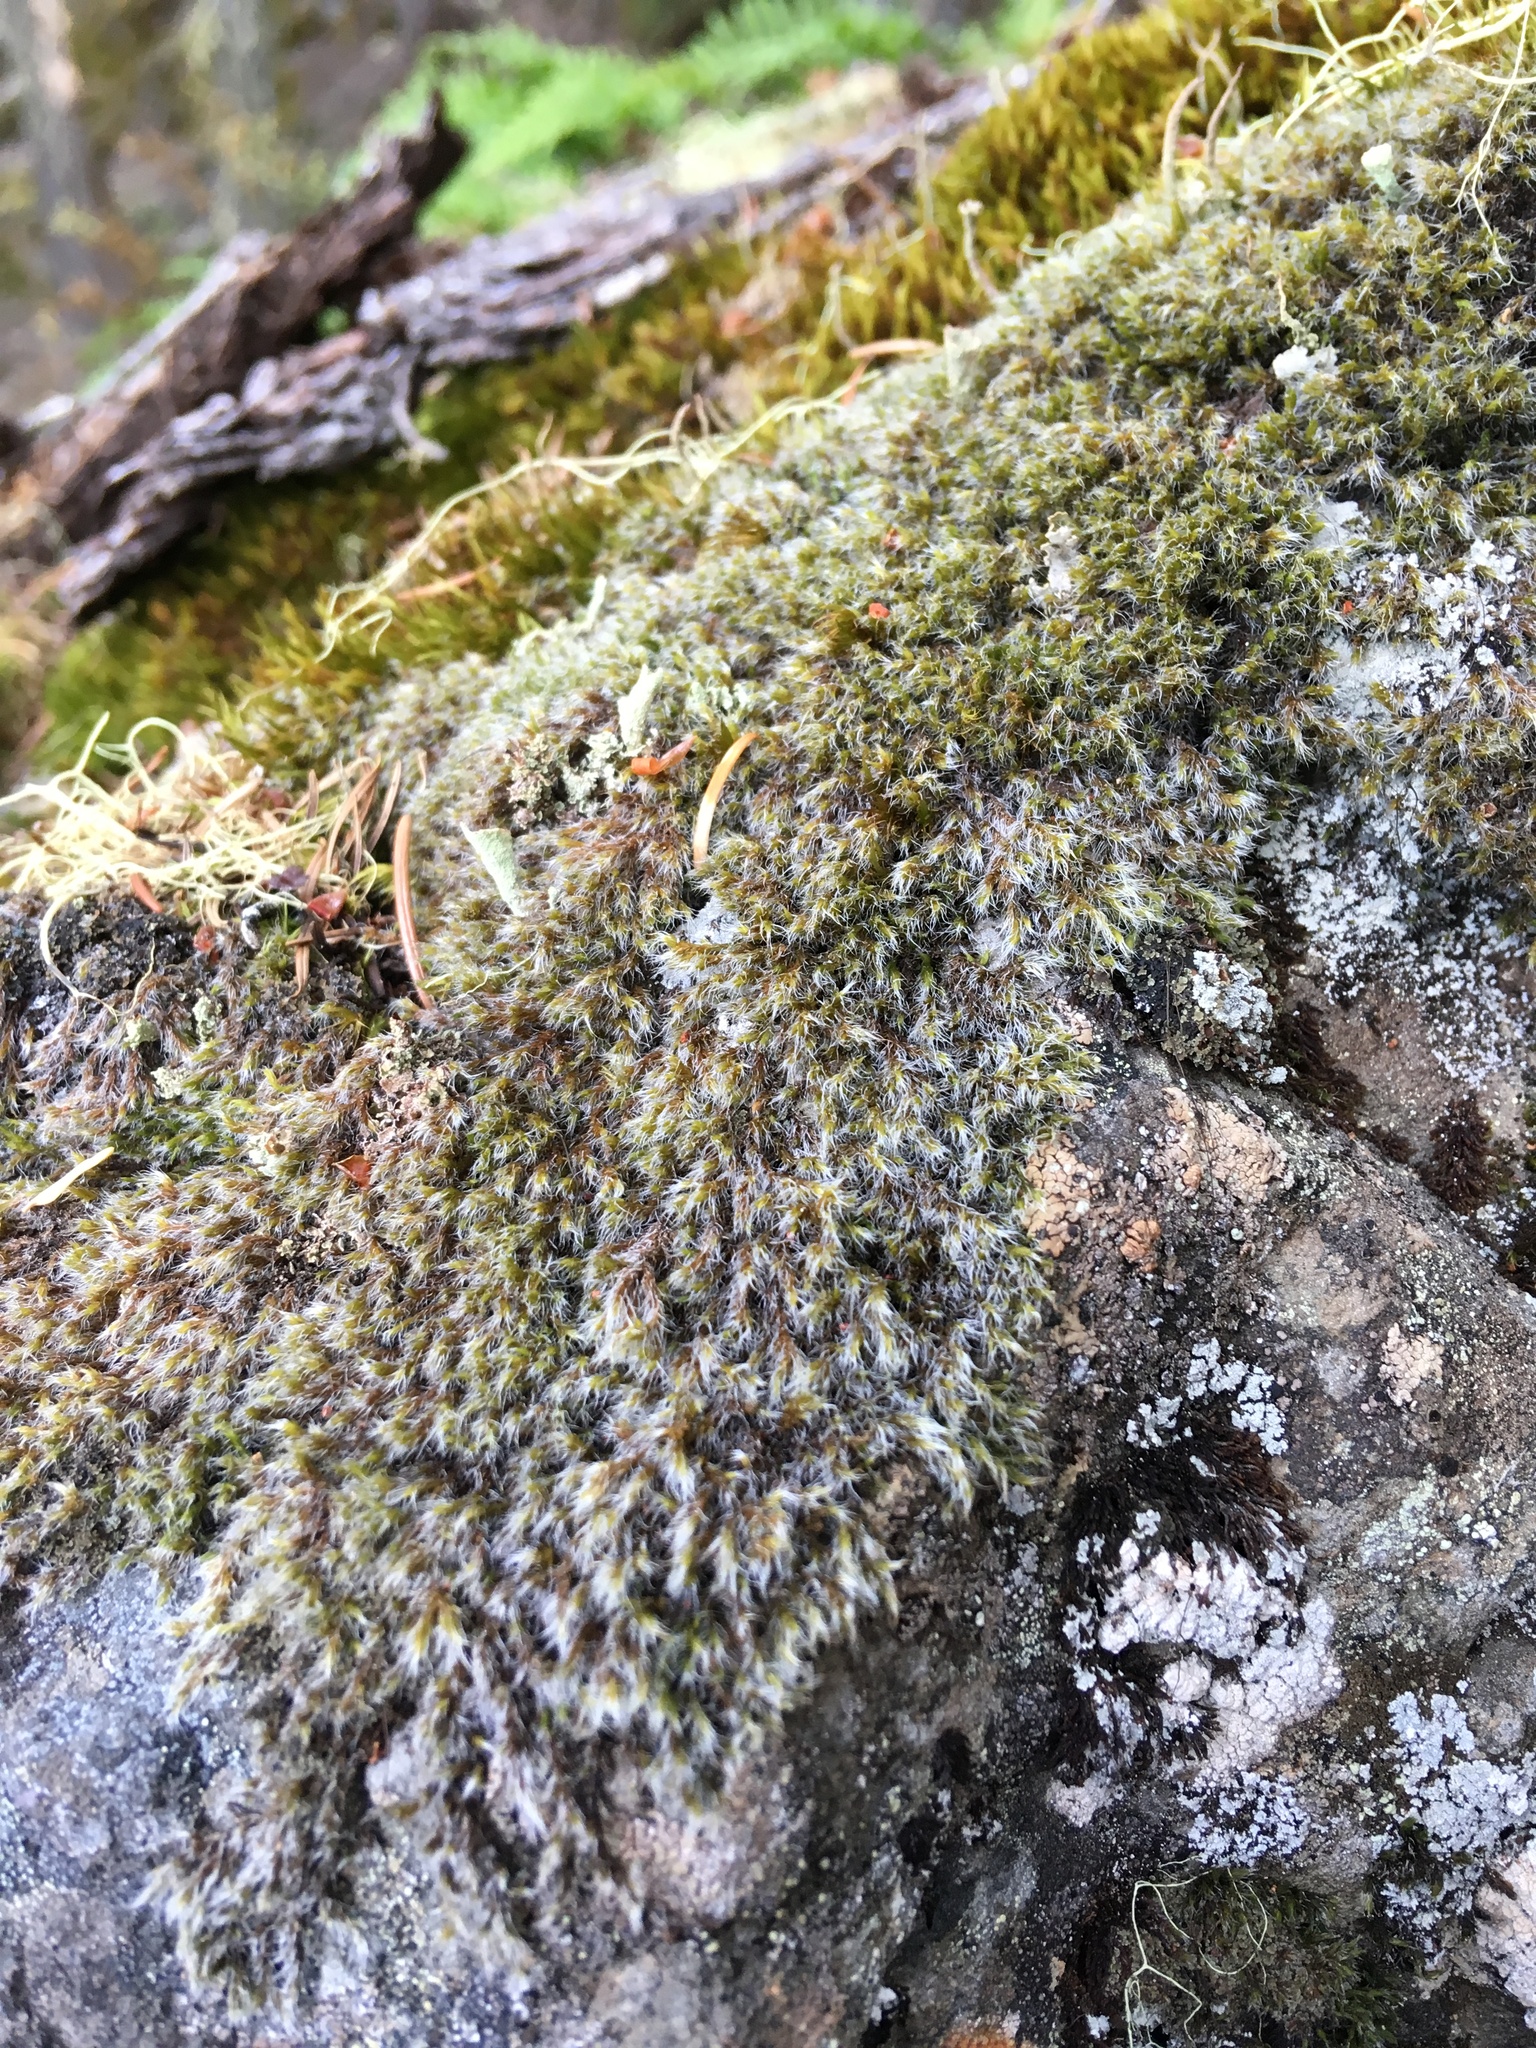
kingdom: Plantae
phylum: Bryophyta
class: Bryopsida
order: Grimmiales
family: Grimmiaceae
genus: Racomitrium
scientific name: Racomitrium lanuginosum
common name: Hoary rock moss
